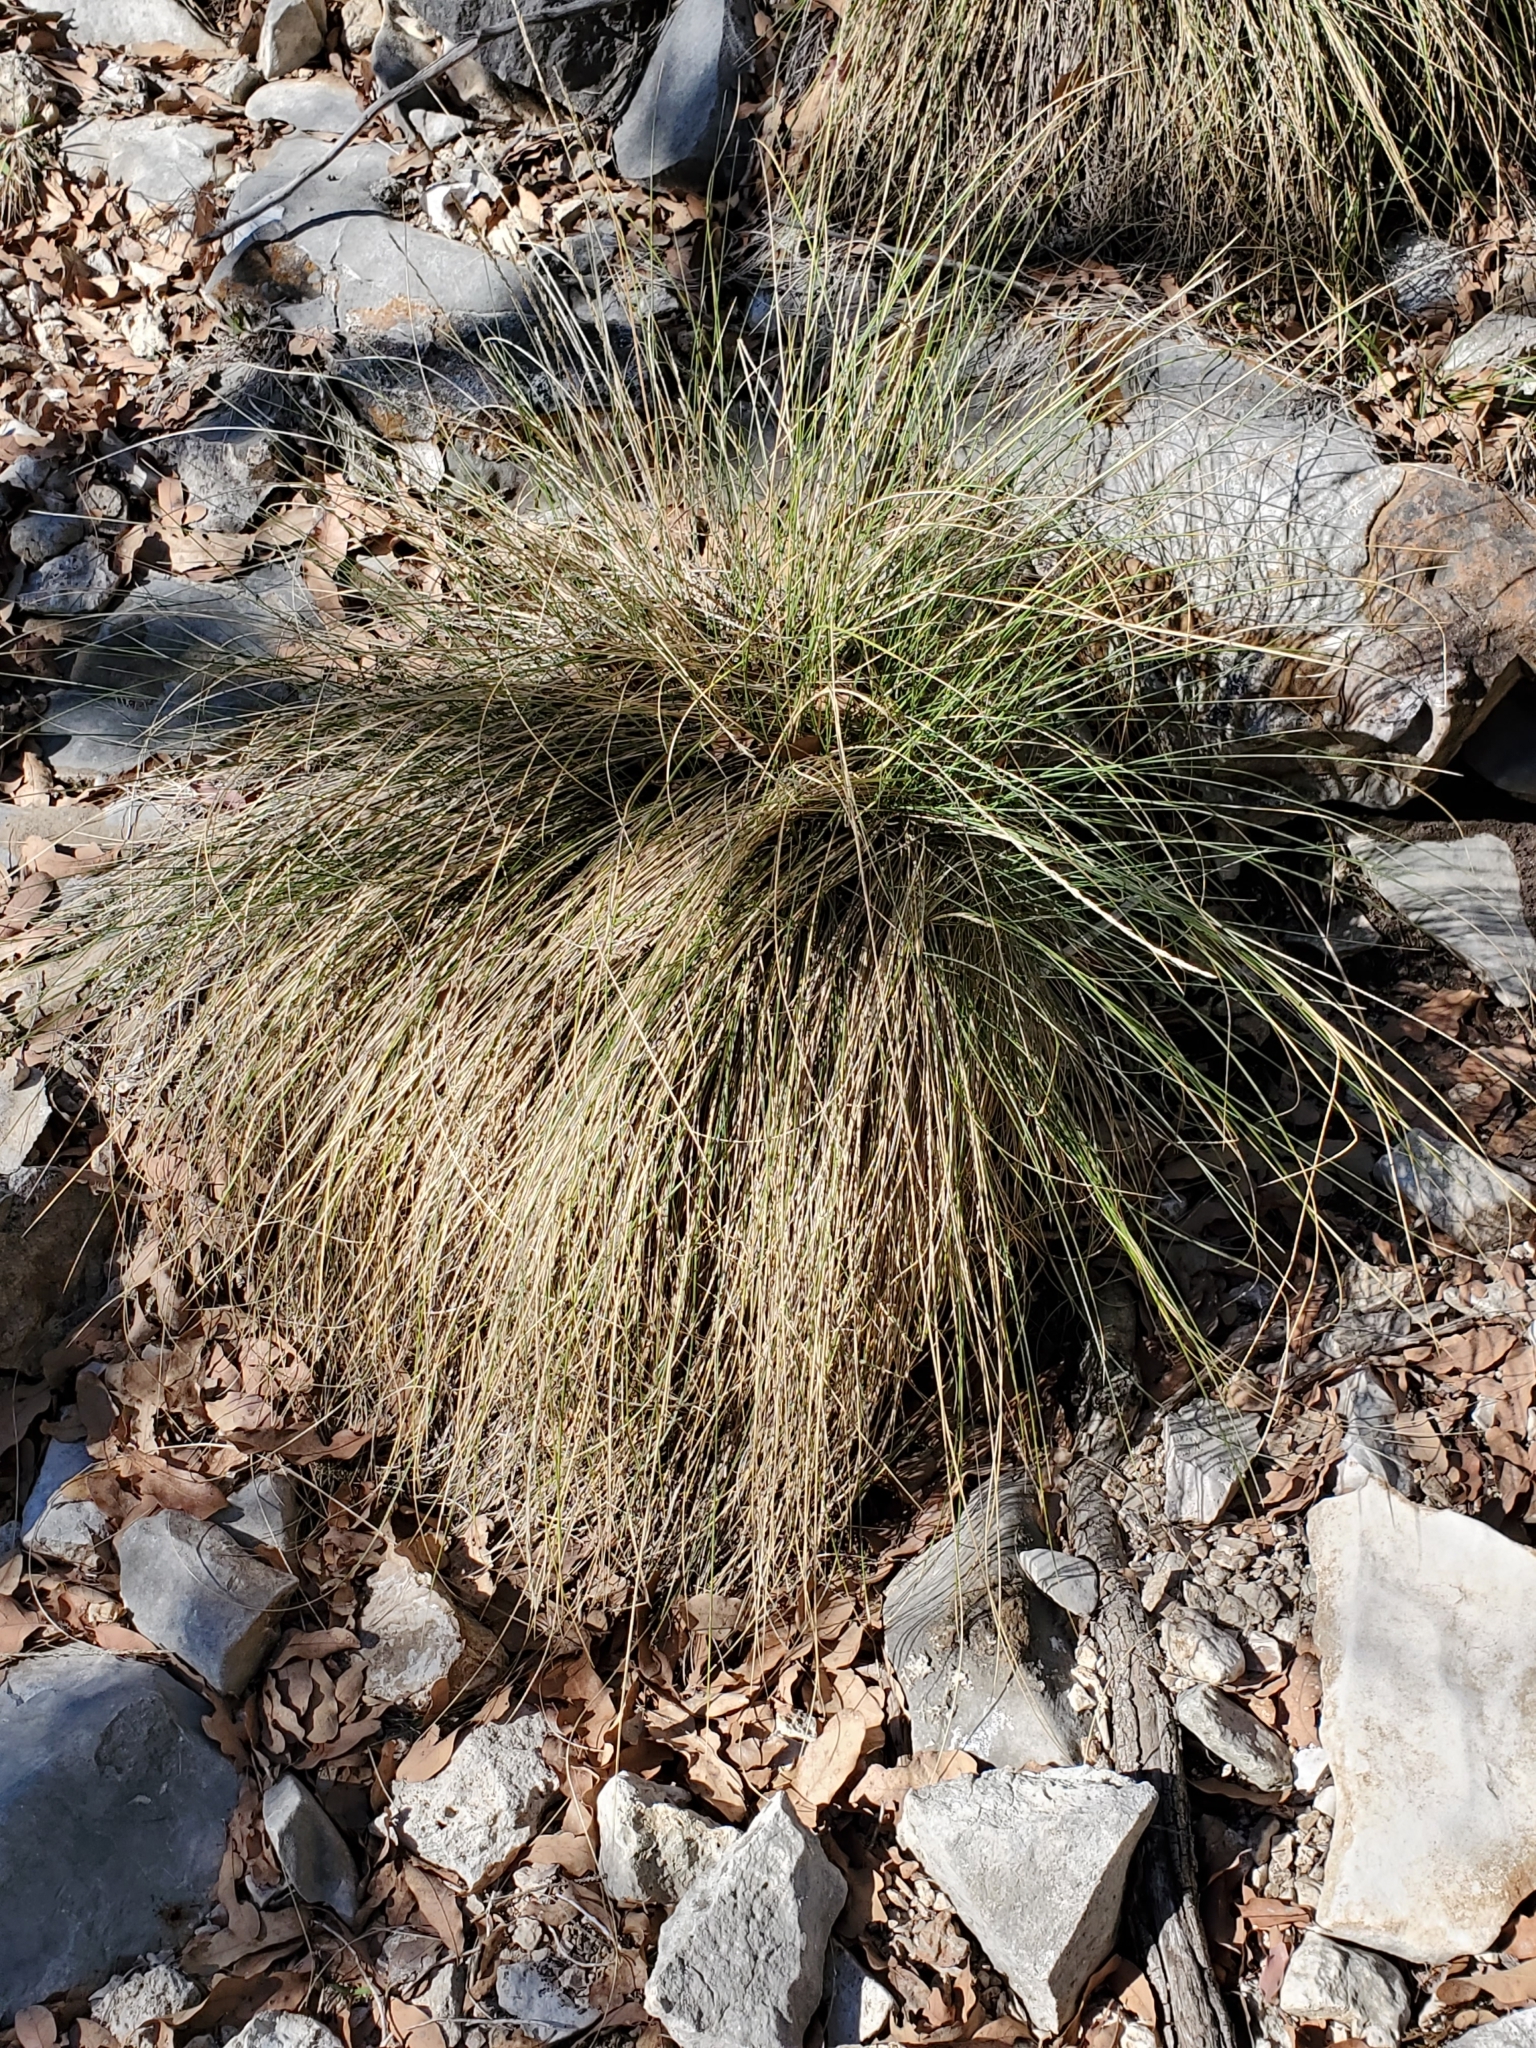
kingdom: Plantae
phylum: Tracheophyta
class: Liliopsida
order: Asparagales
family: Asparagaceae
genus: Nolina
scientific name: Nolina texana
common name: Texas sacahuiste
